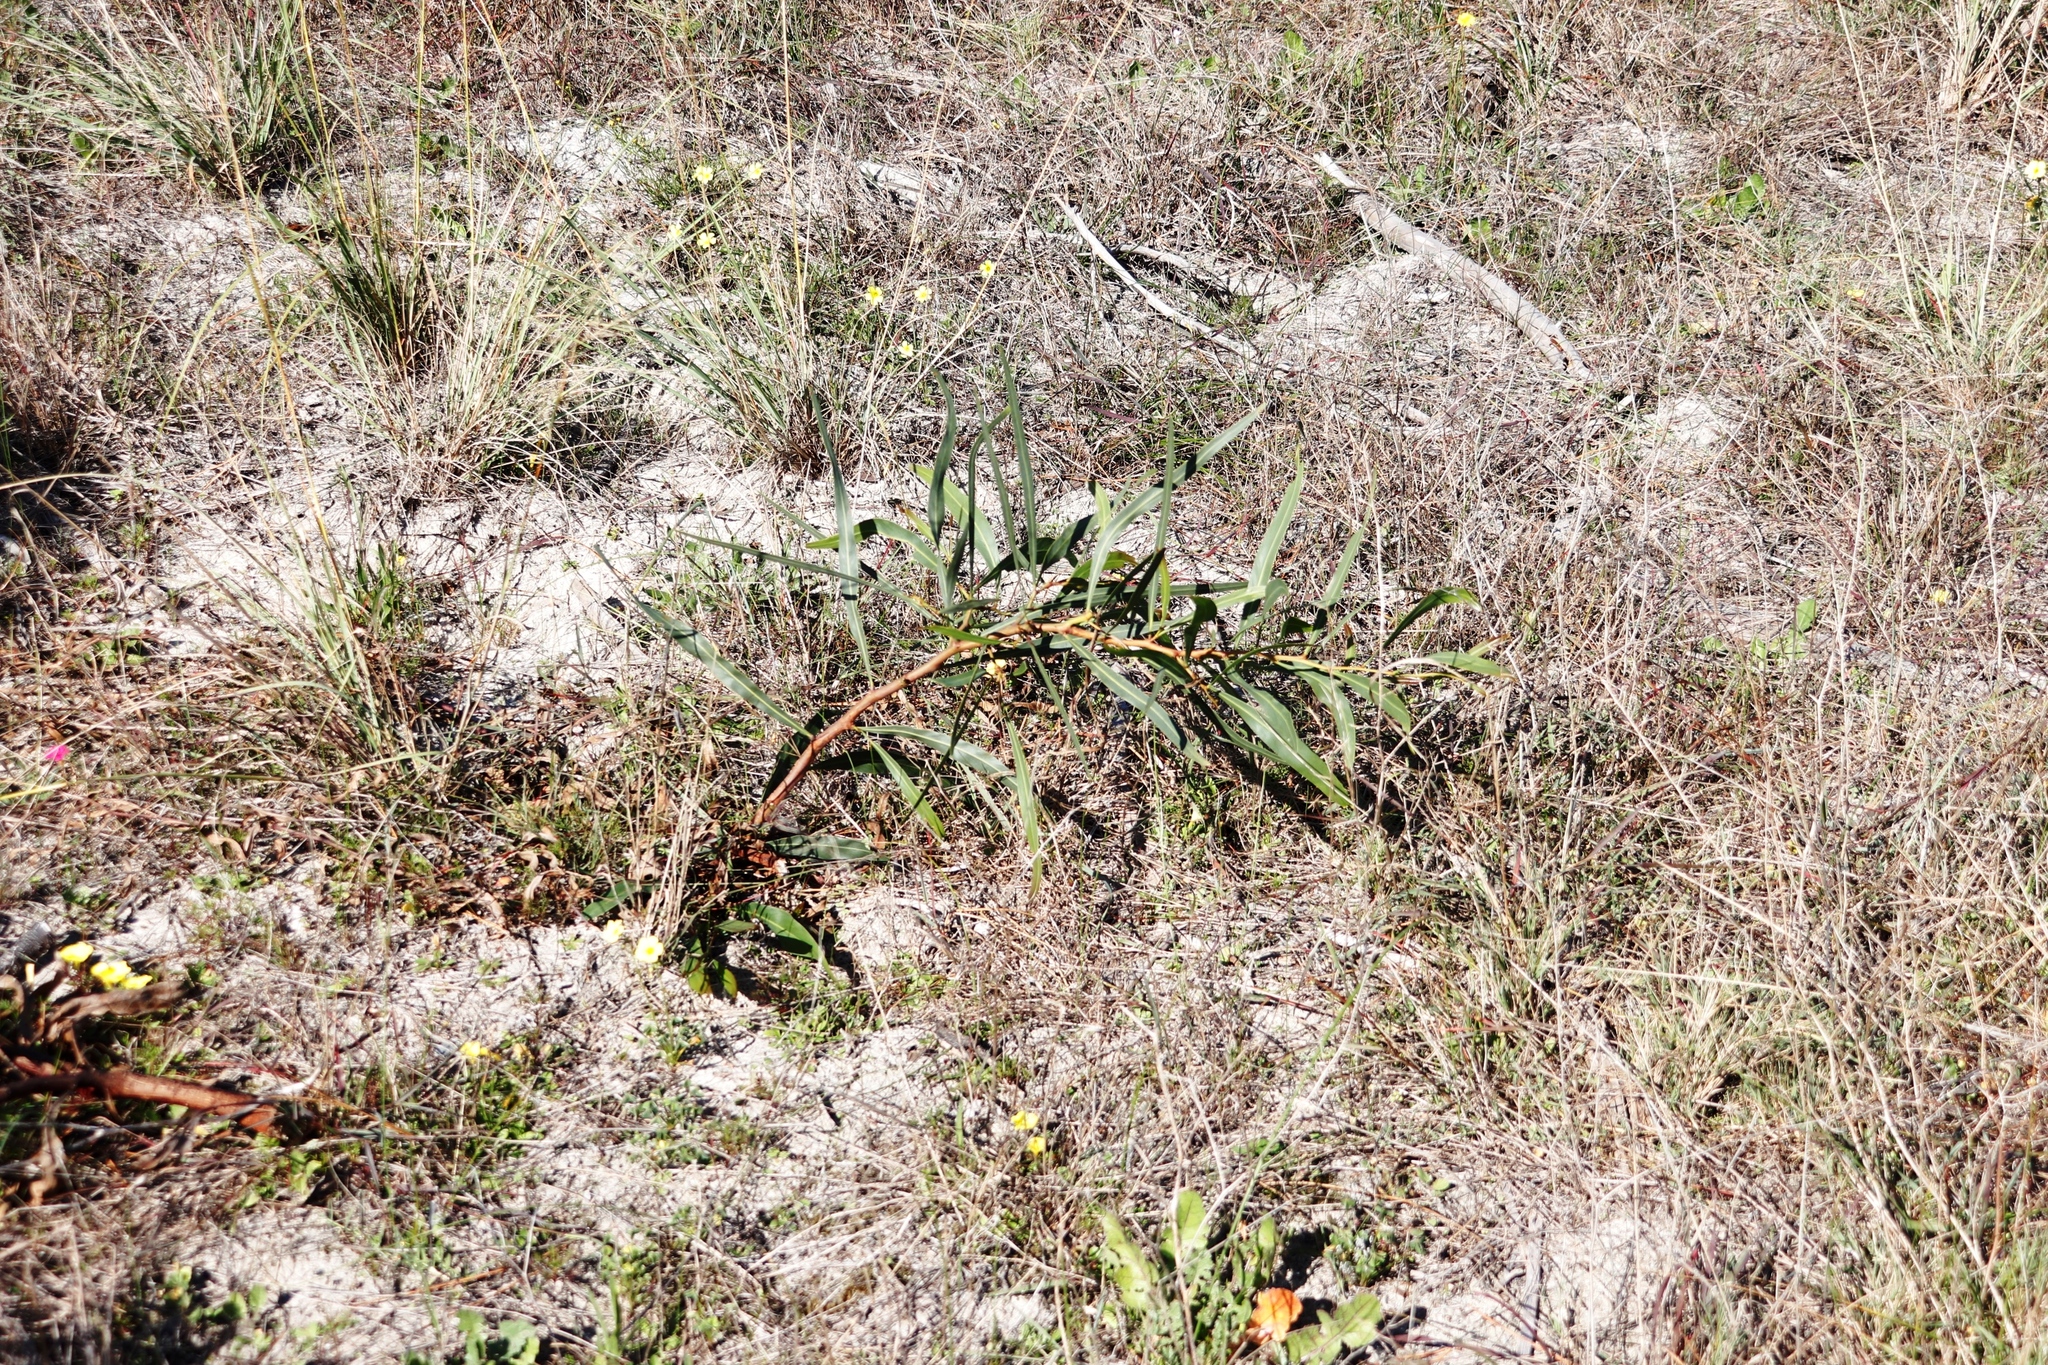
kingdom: Plantae
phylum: Tracheophyta
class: Magnoliopsida
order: Fabales
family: Fabaceae
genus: Acacia
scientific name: Acacia saligna
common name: Orange wattle
